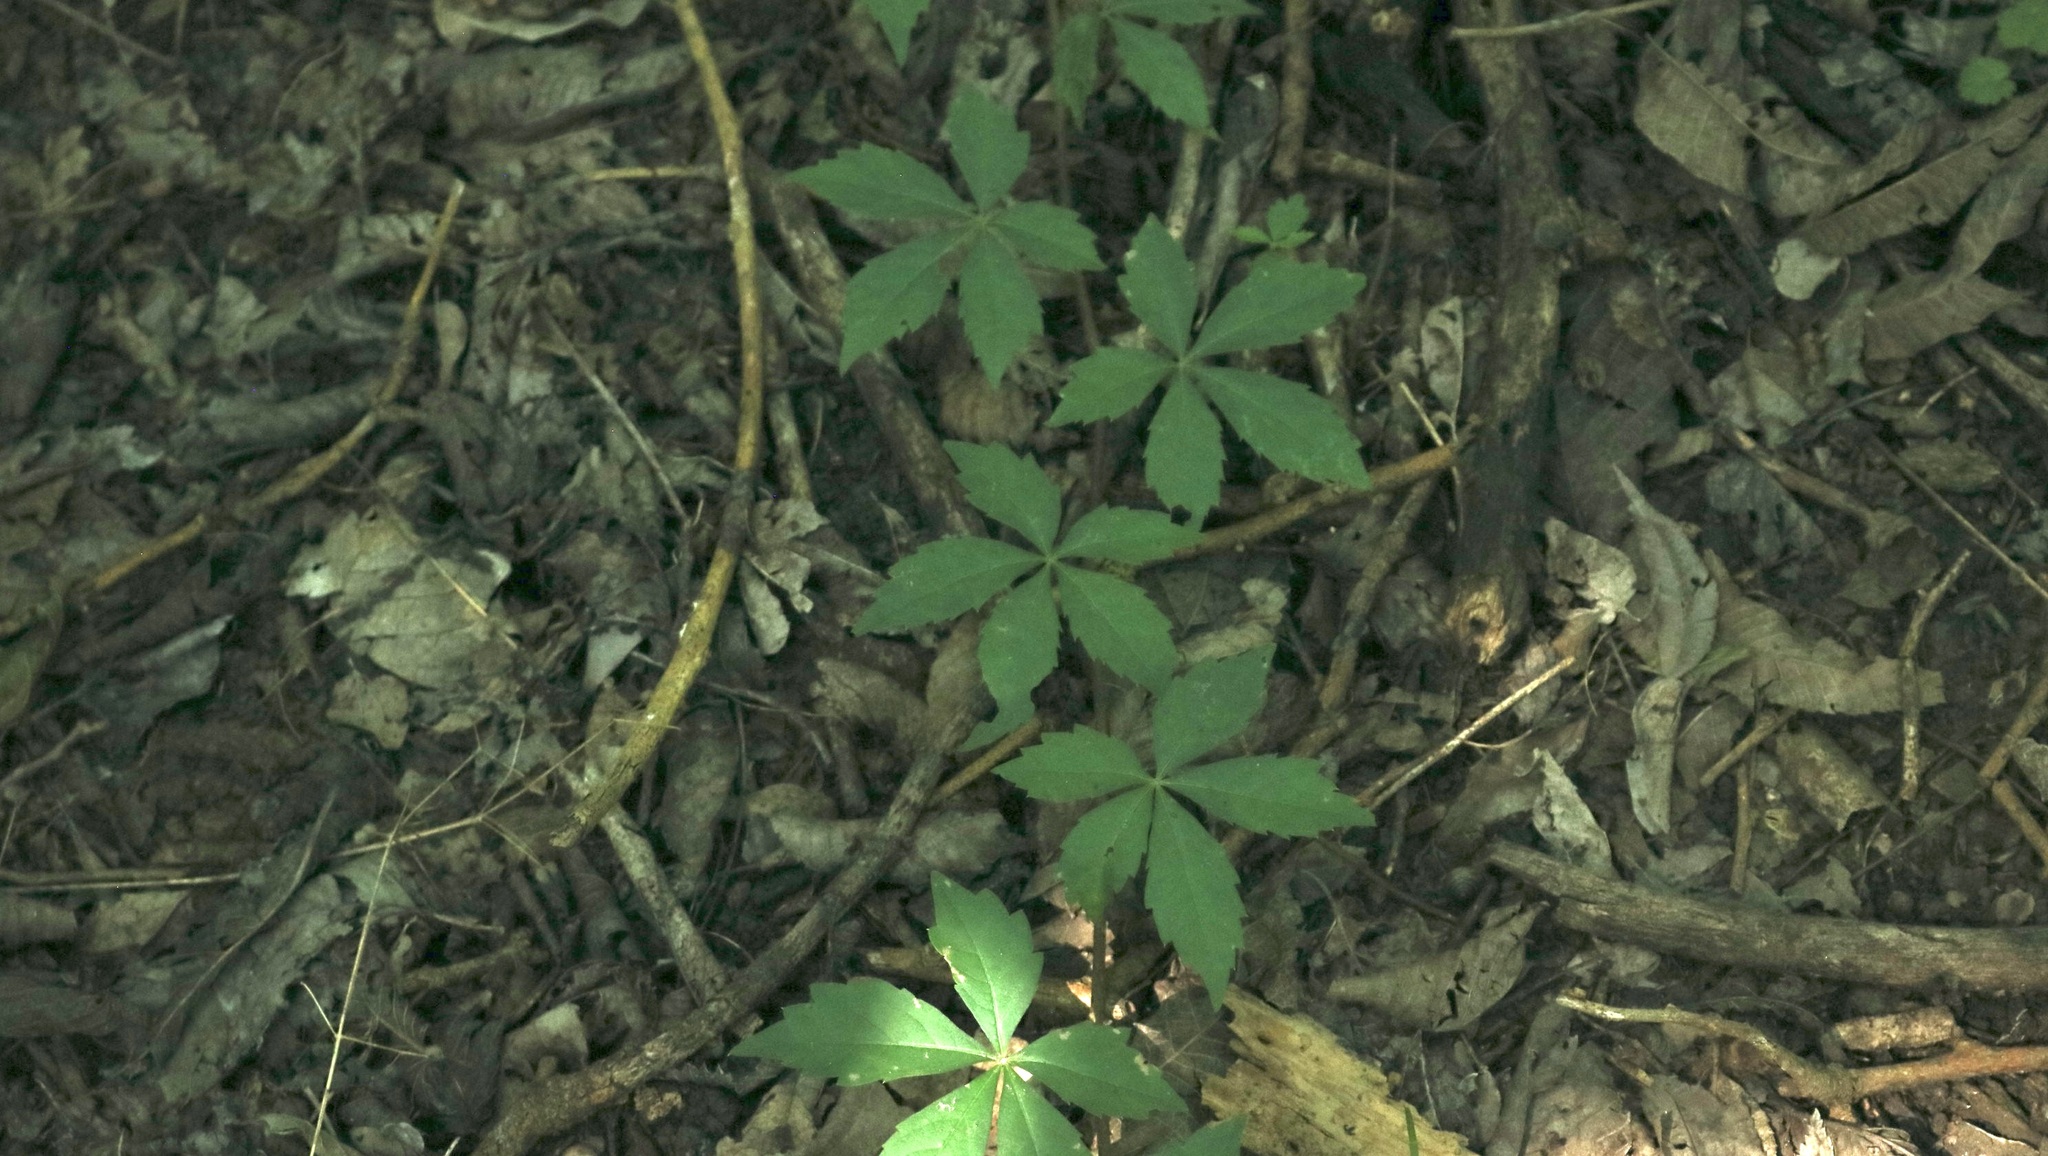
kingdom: Plantae
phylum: Tracheophyta
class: Magnoliopsida
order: Vitales
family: Vitaceae
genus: Parthenocissus
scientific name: Parthenocissus quinquefolia
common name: Virginia-creeper
